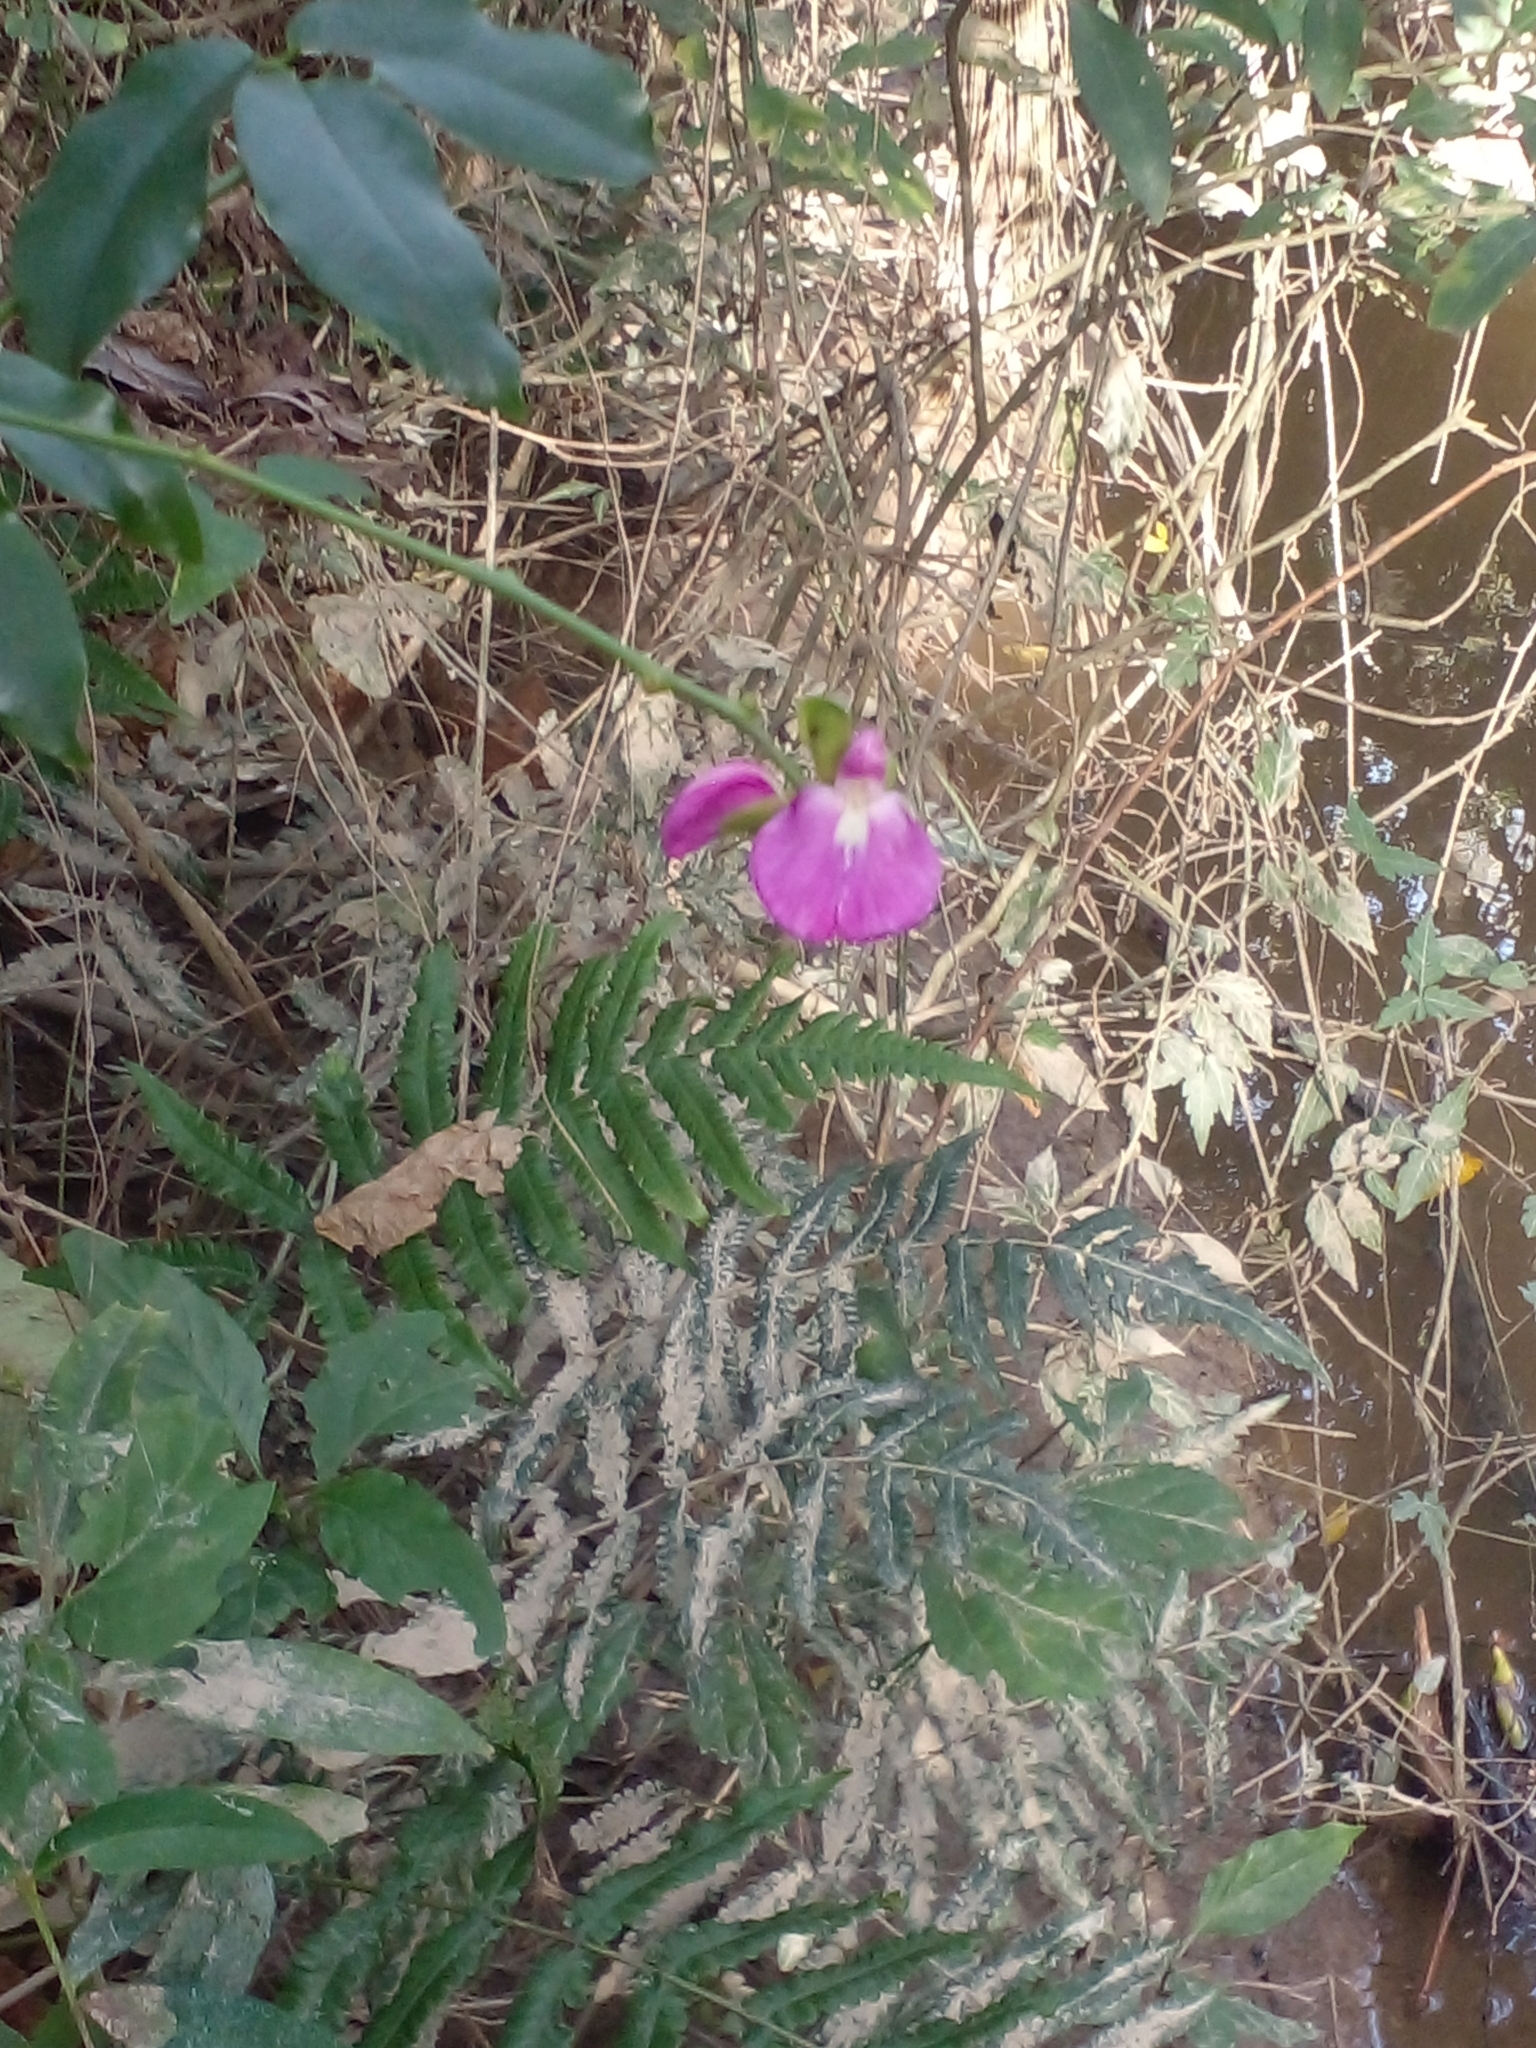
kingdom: Plantae
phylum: Tracheophyta
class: Magnoliopsida
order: Fabales
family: Fabaceae
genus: Canavalia
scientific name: Canavalia bonariensis
